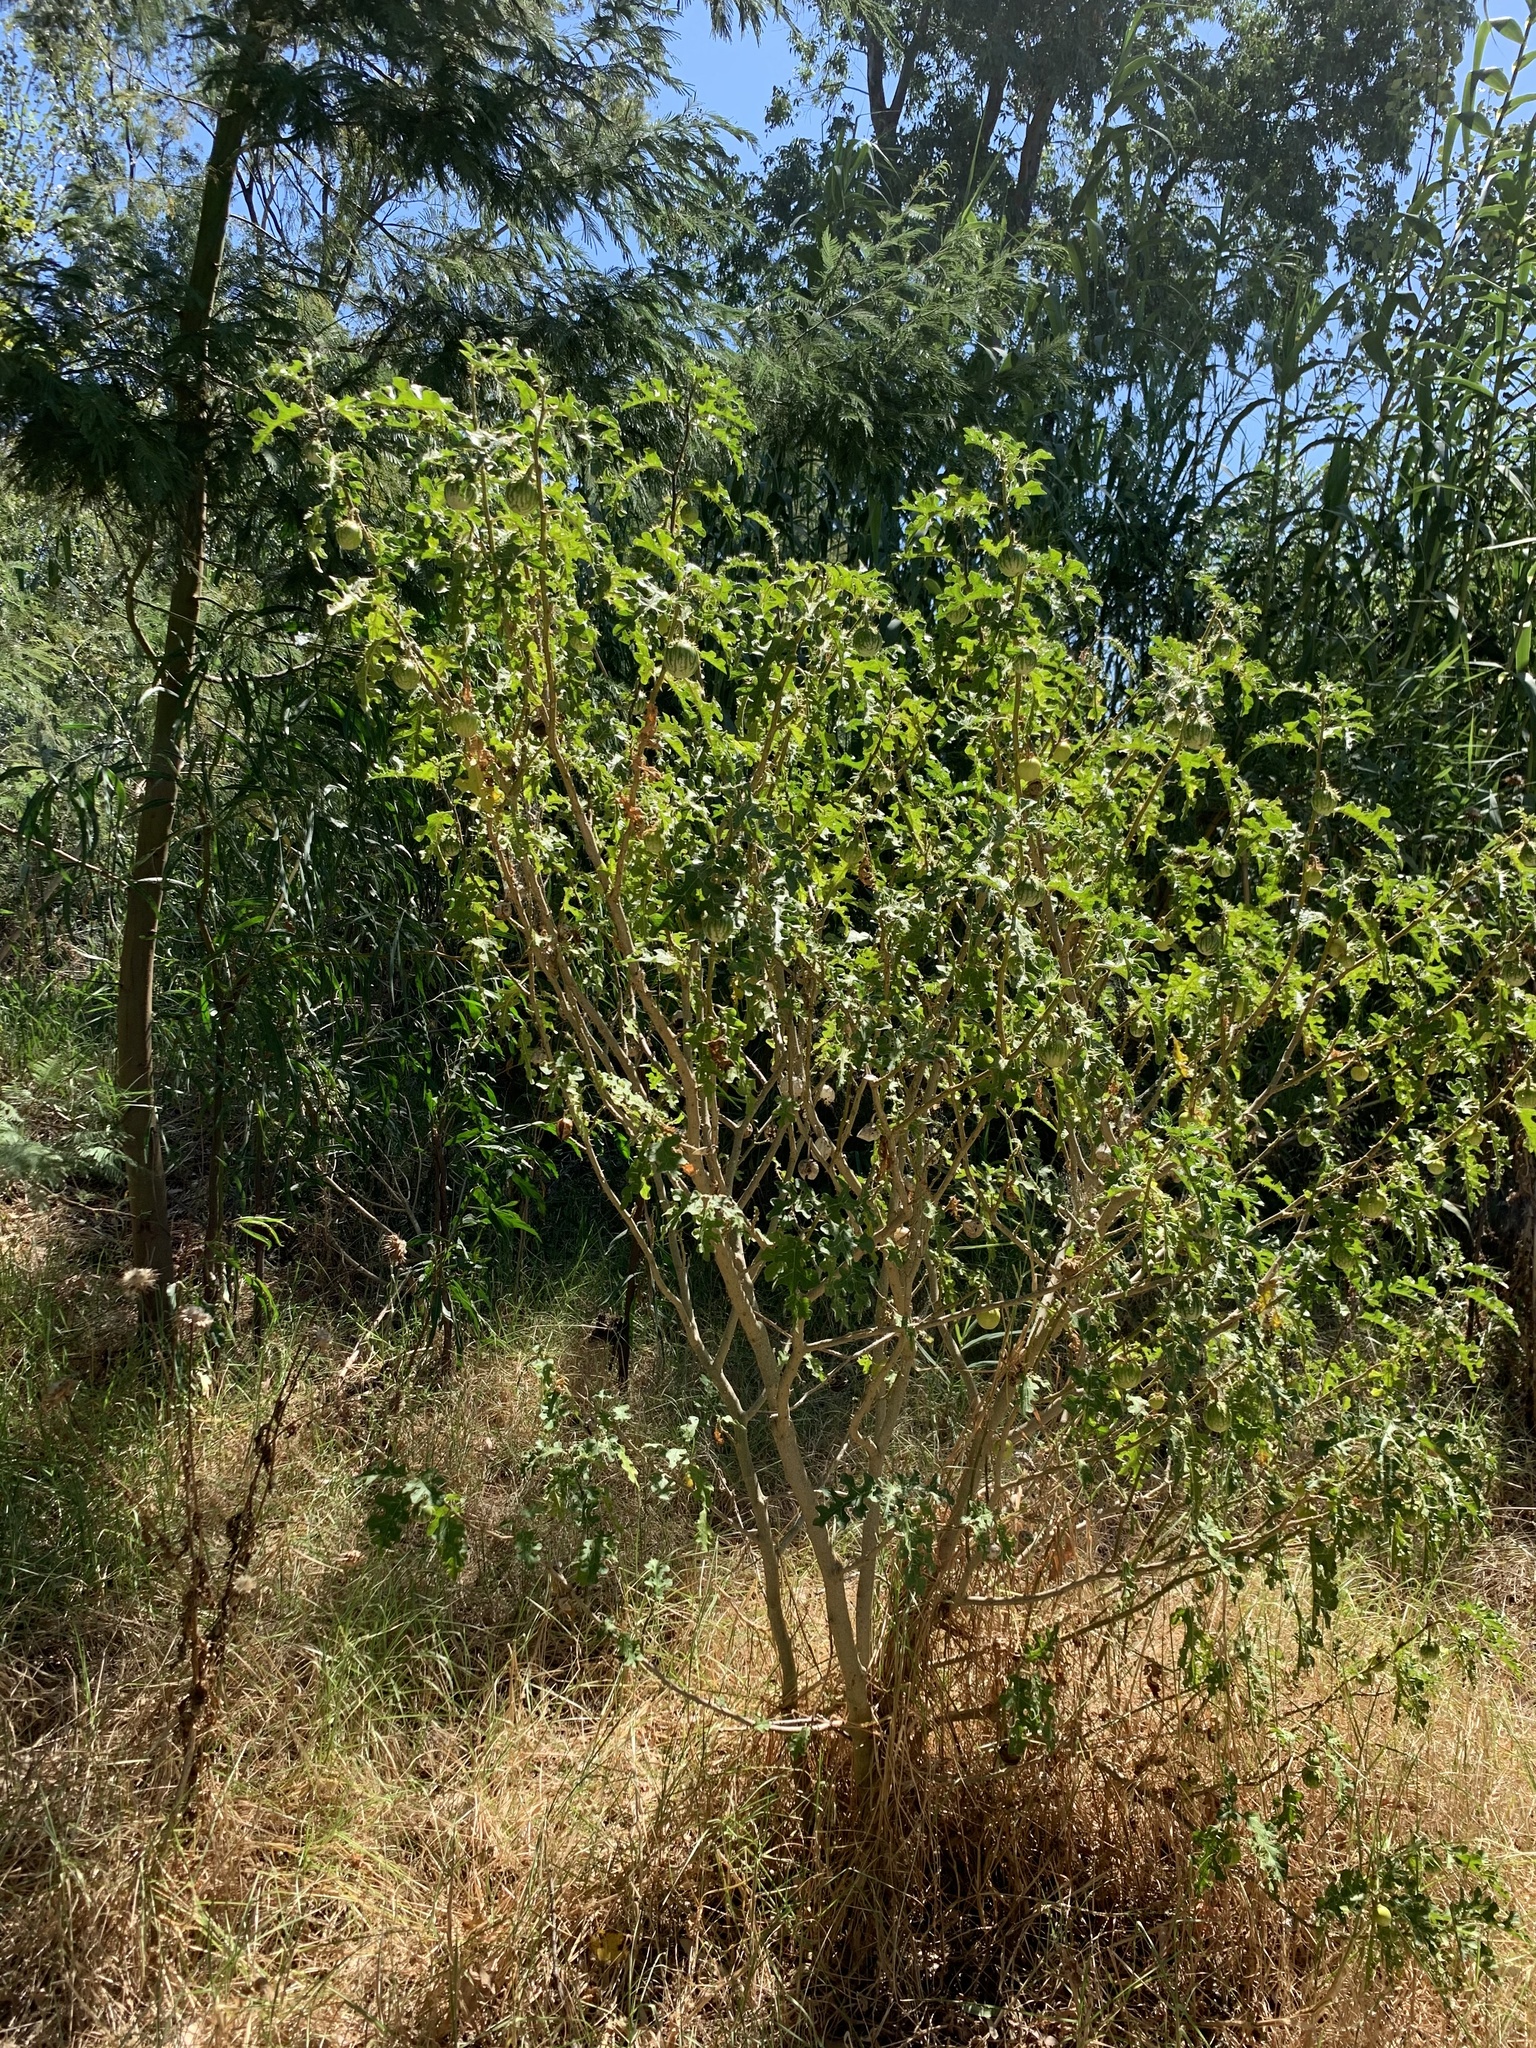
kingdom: Plantae
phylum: Tracheophyta
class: Magnoliopsida
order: Solanales
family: Solanaceae
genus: Solanum
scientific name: Solanum linnaeanum
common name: Nightshade
